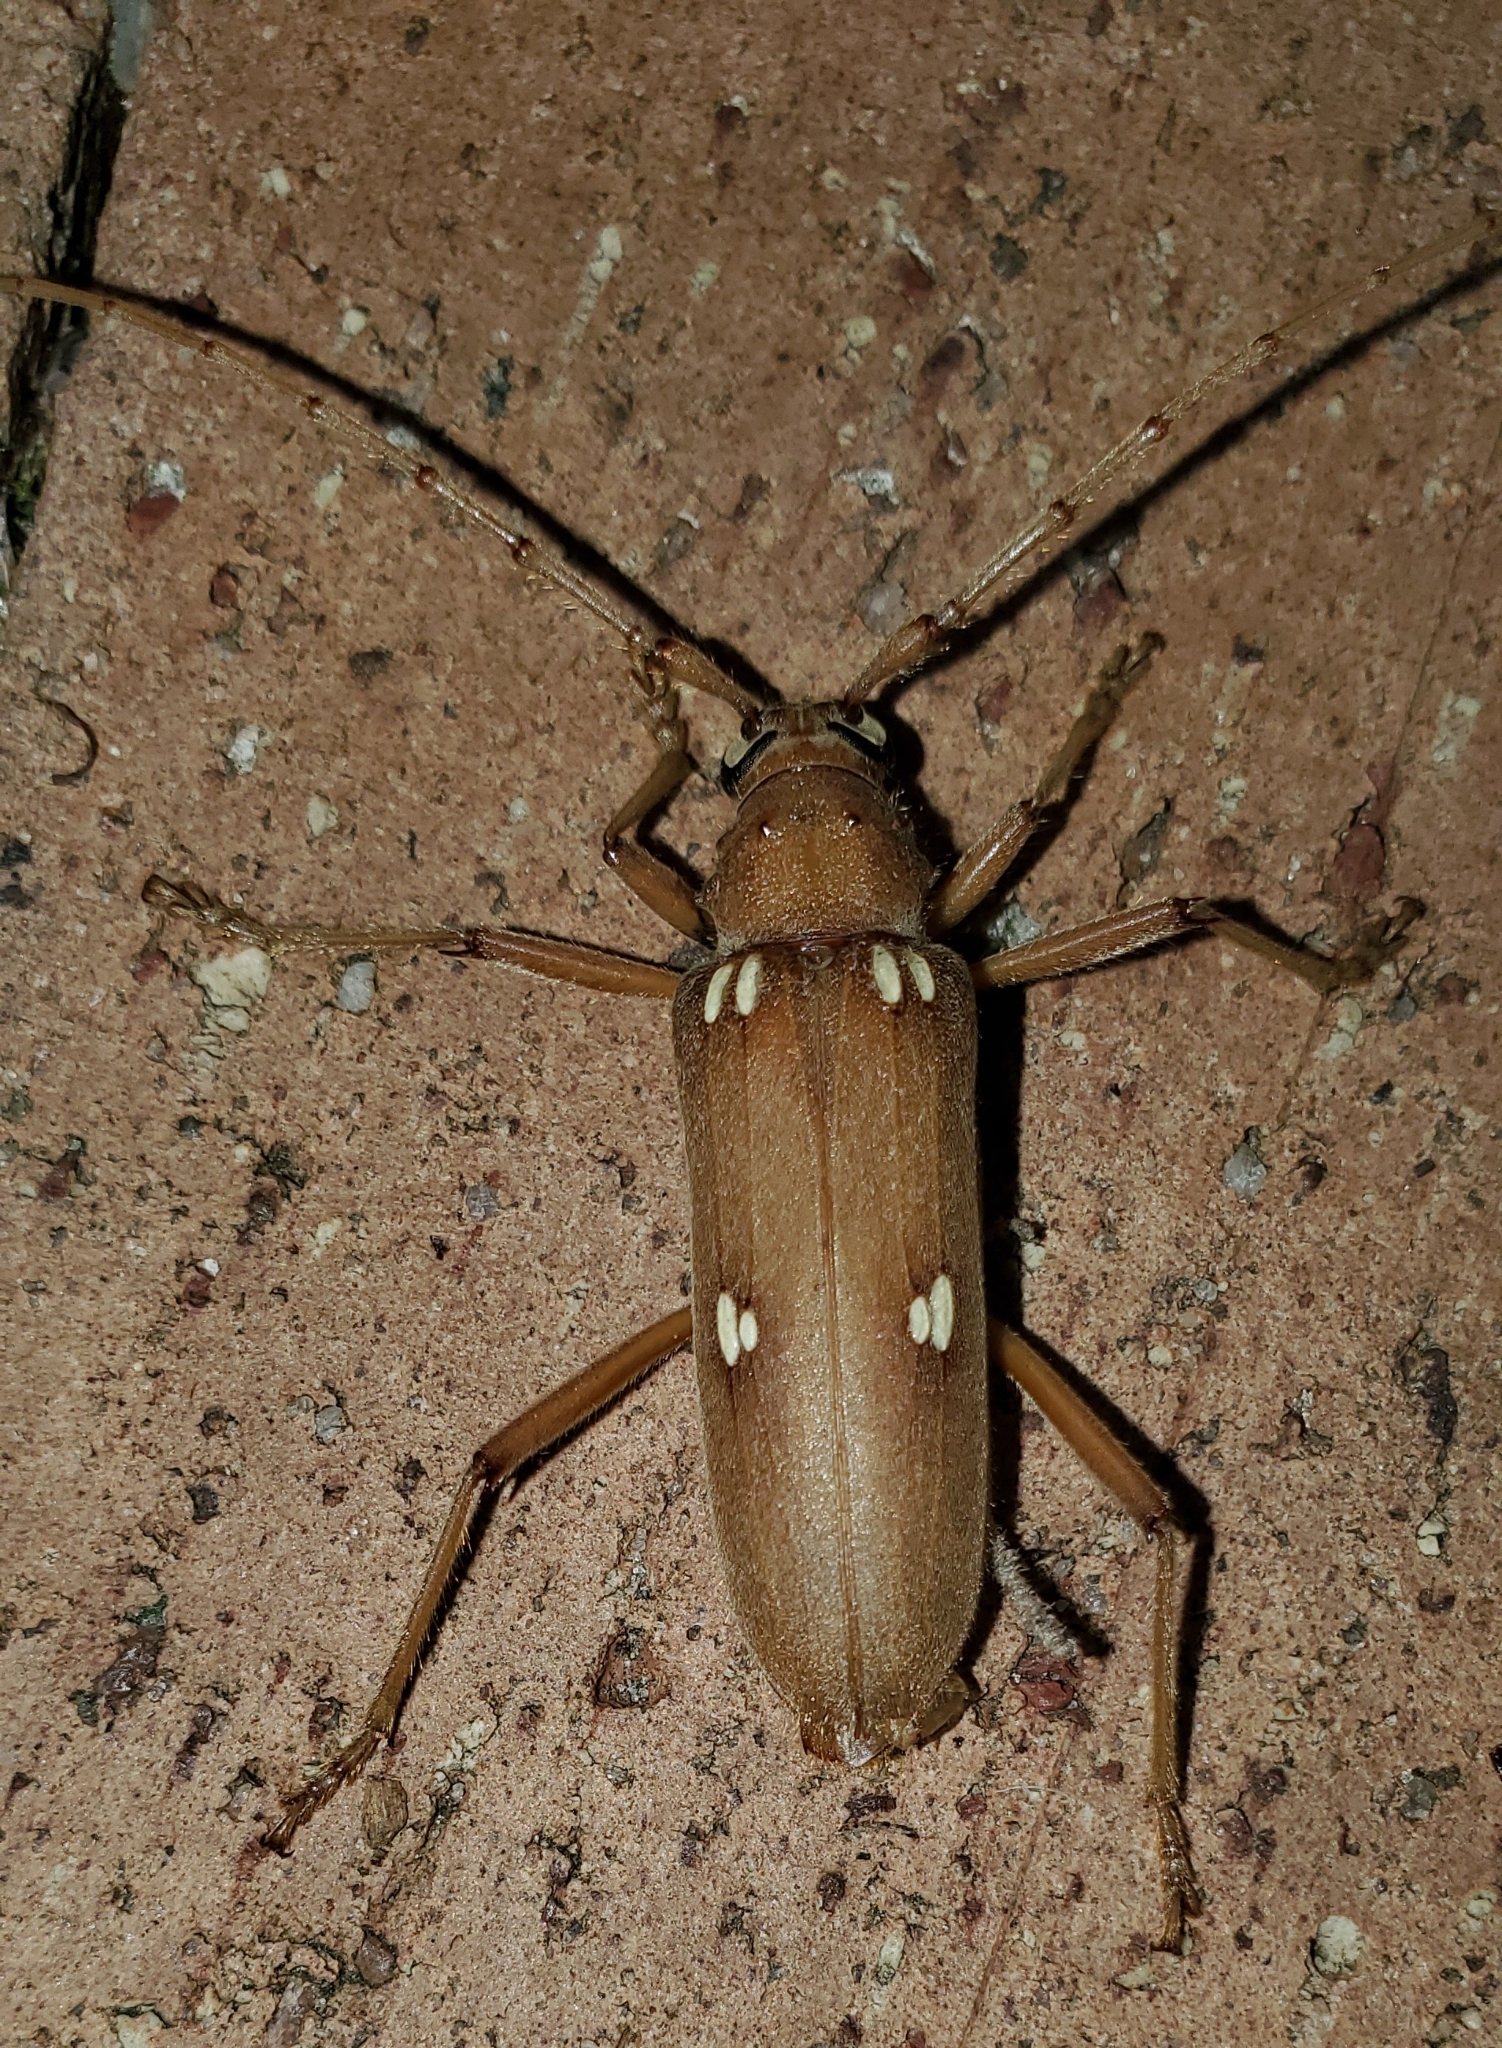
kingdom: Animalia
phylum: Arthropoda
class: Insecta
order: Coleoptera
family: Cerambycidae
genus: Eburia
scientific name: Eburia quadrigeminata
